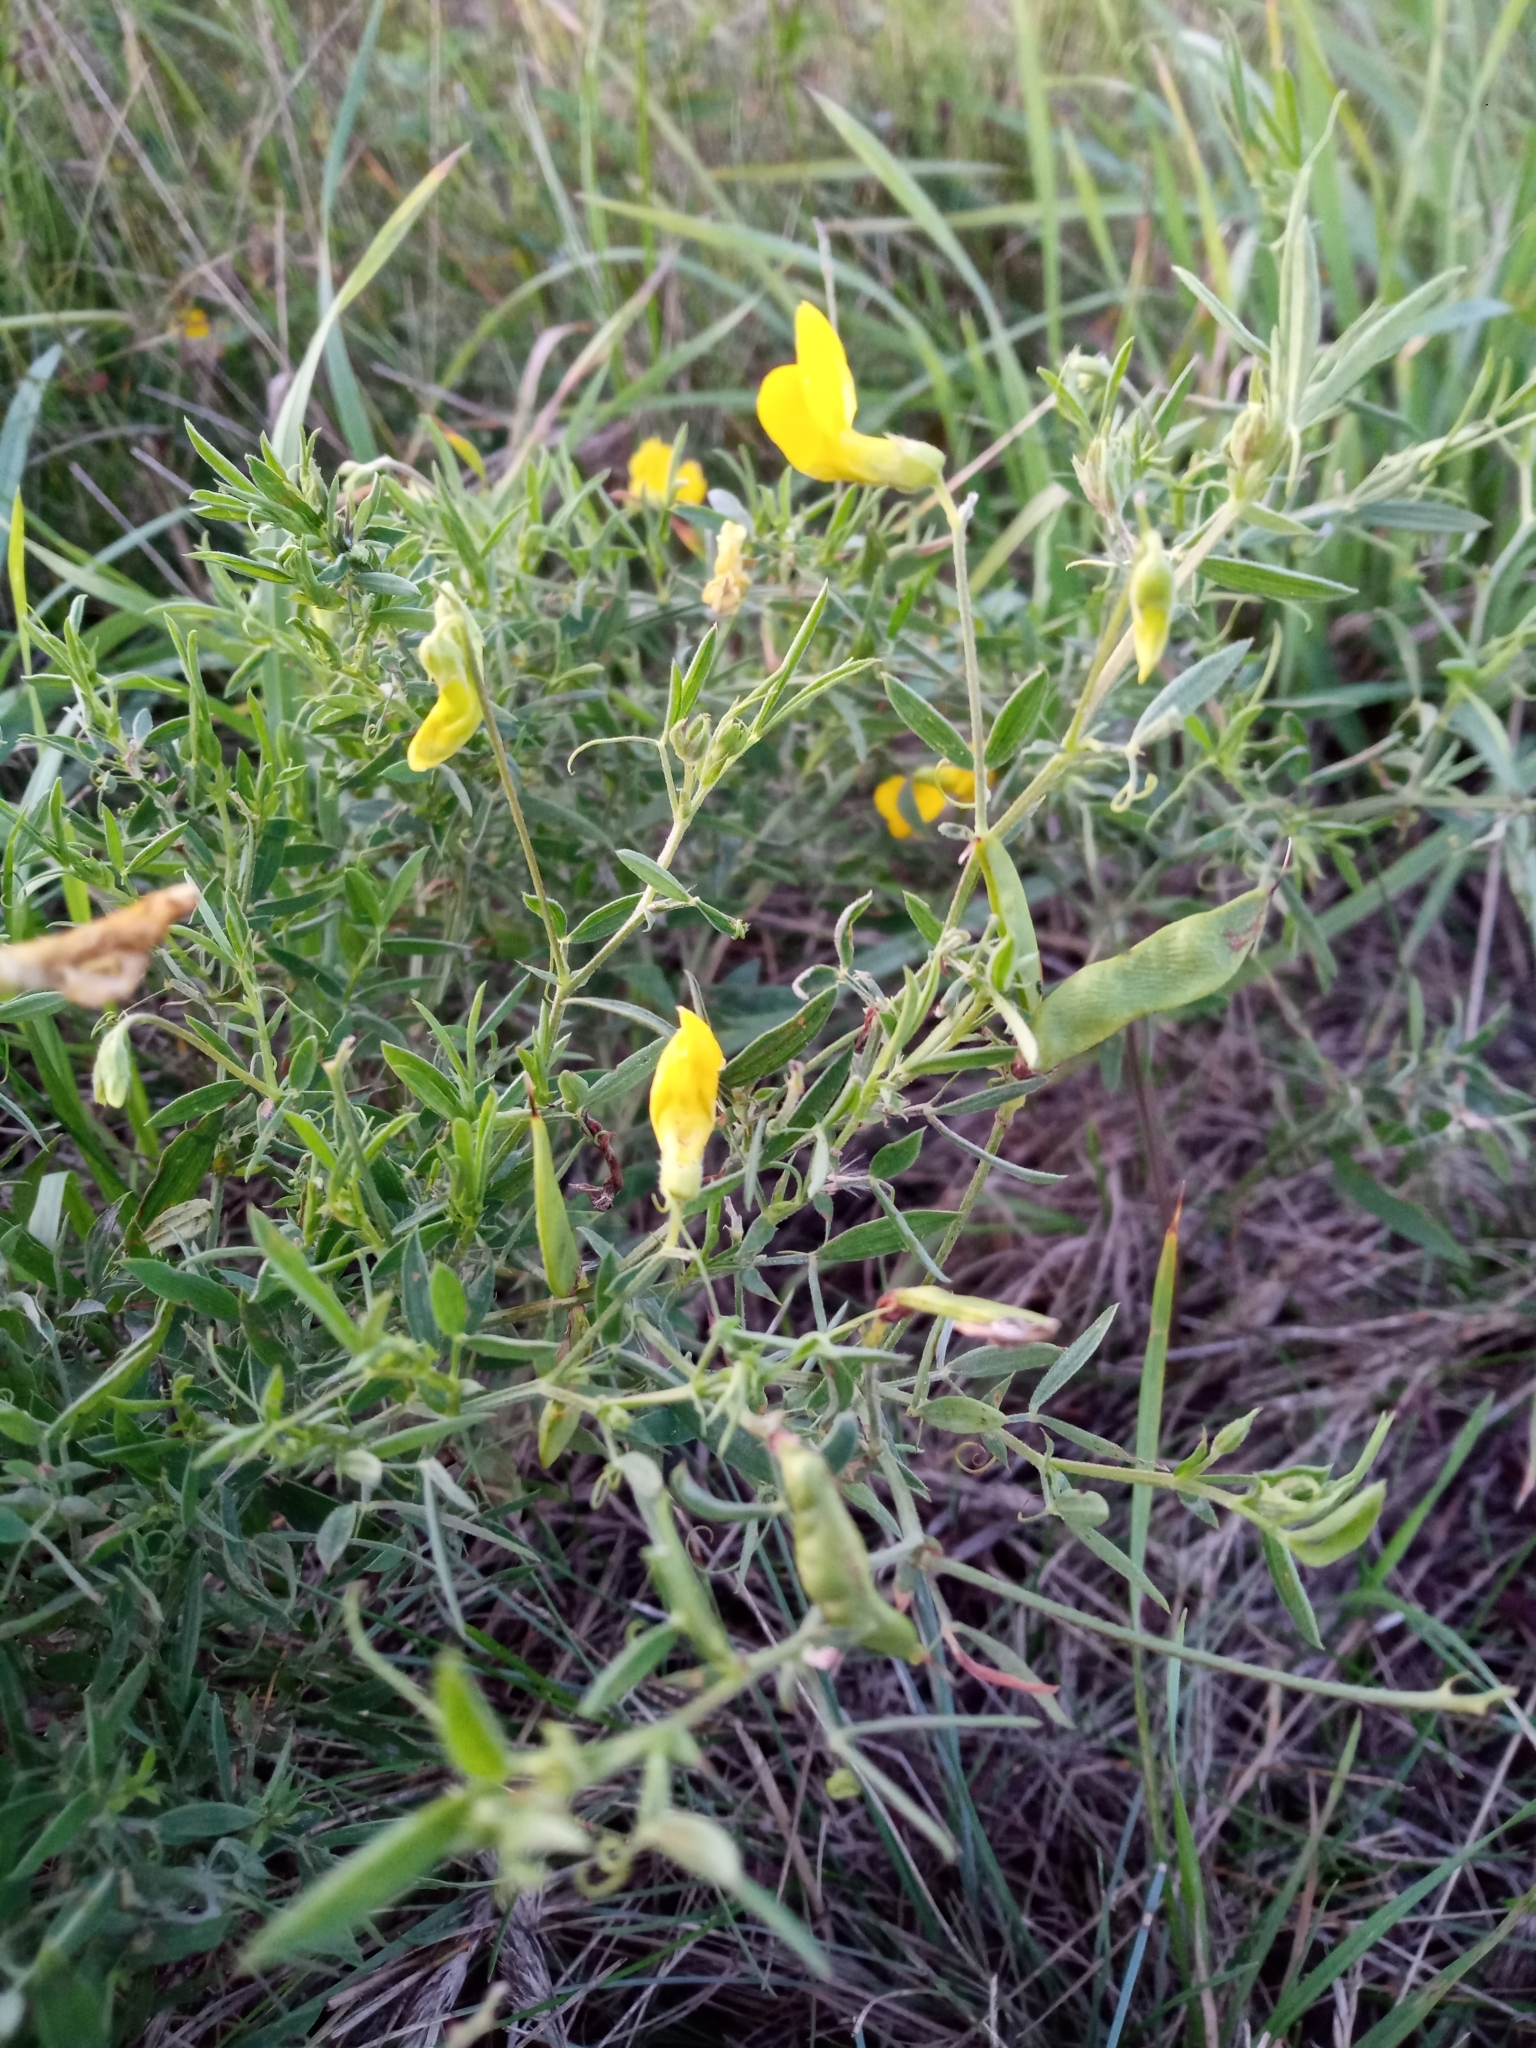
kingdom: Plantae
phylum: Tracheophyta
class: Magnoliopsida
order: Fabales
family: Fabaceae
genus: Lathyrus
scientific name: Lathyrus pratensis
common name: Meadow vetchling
